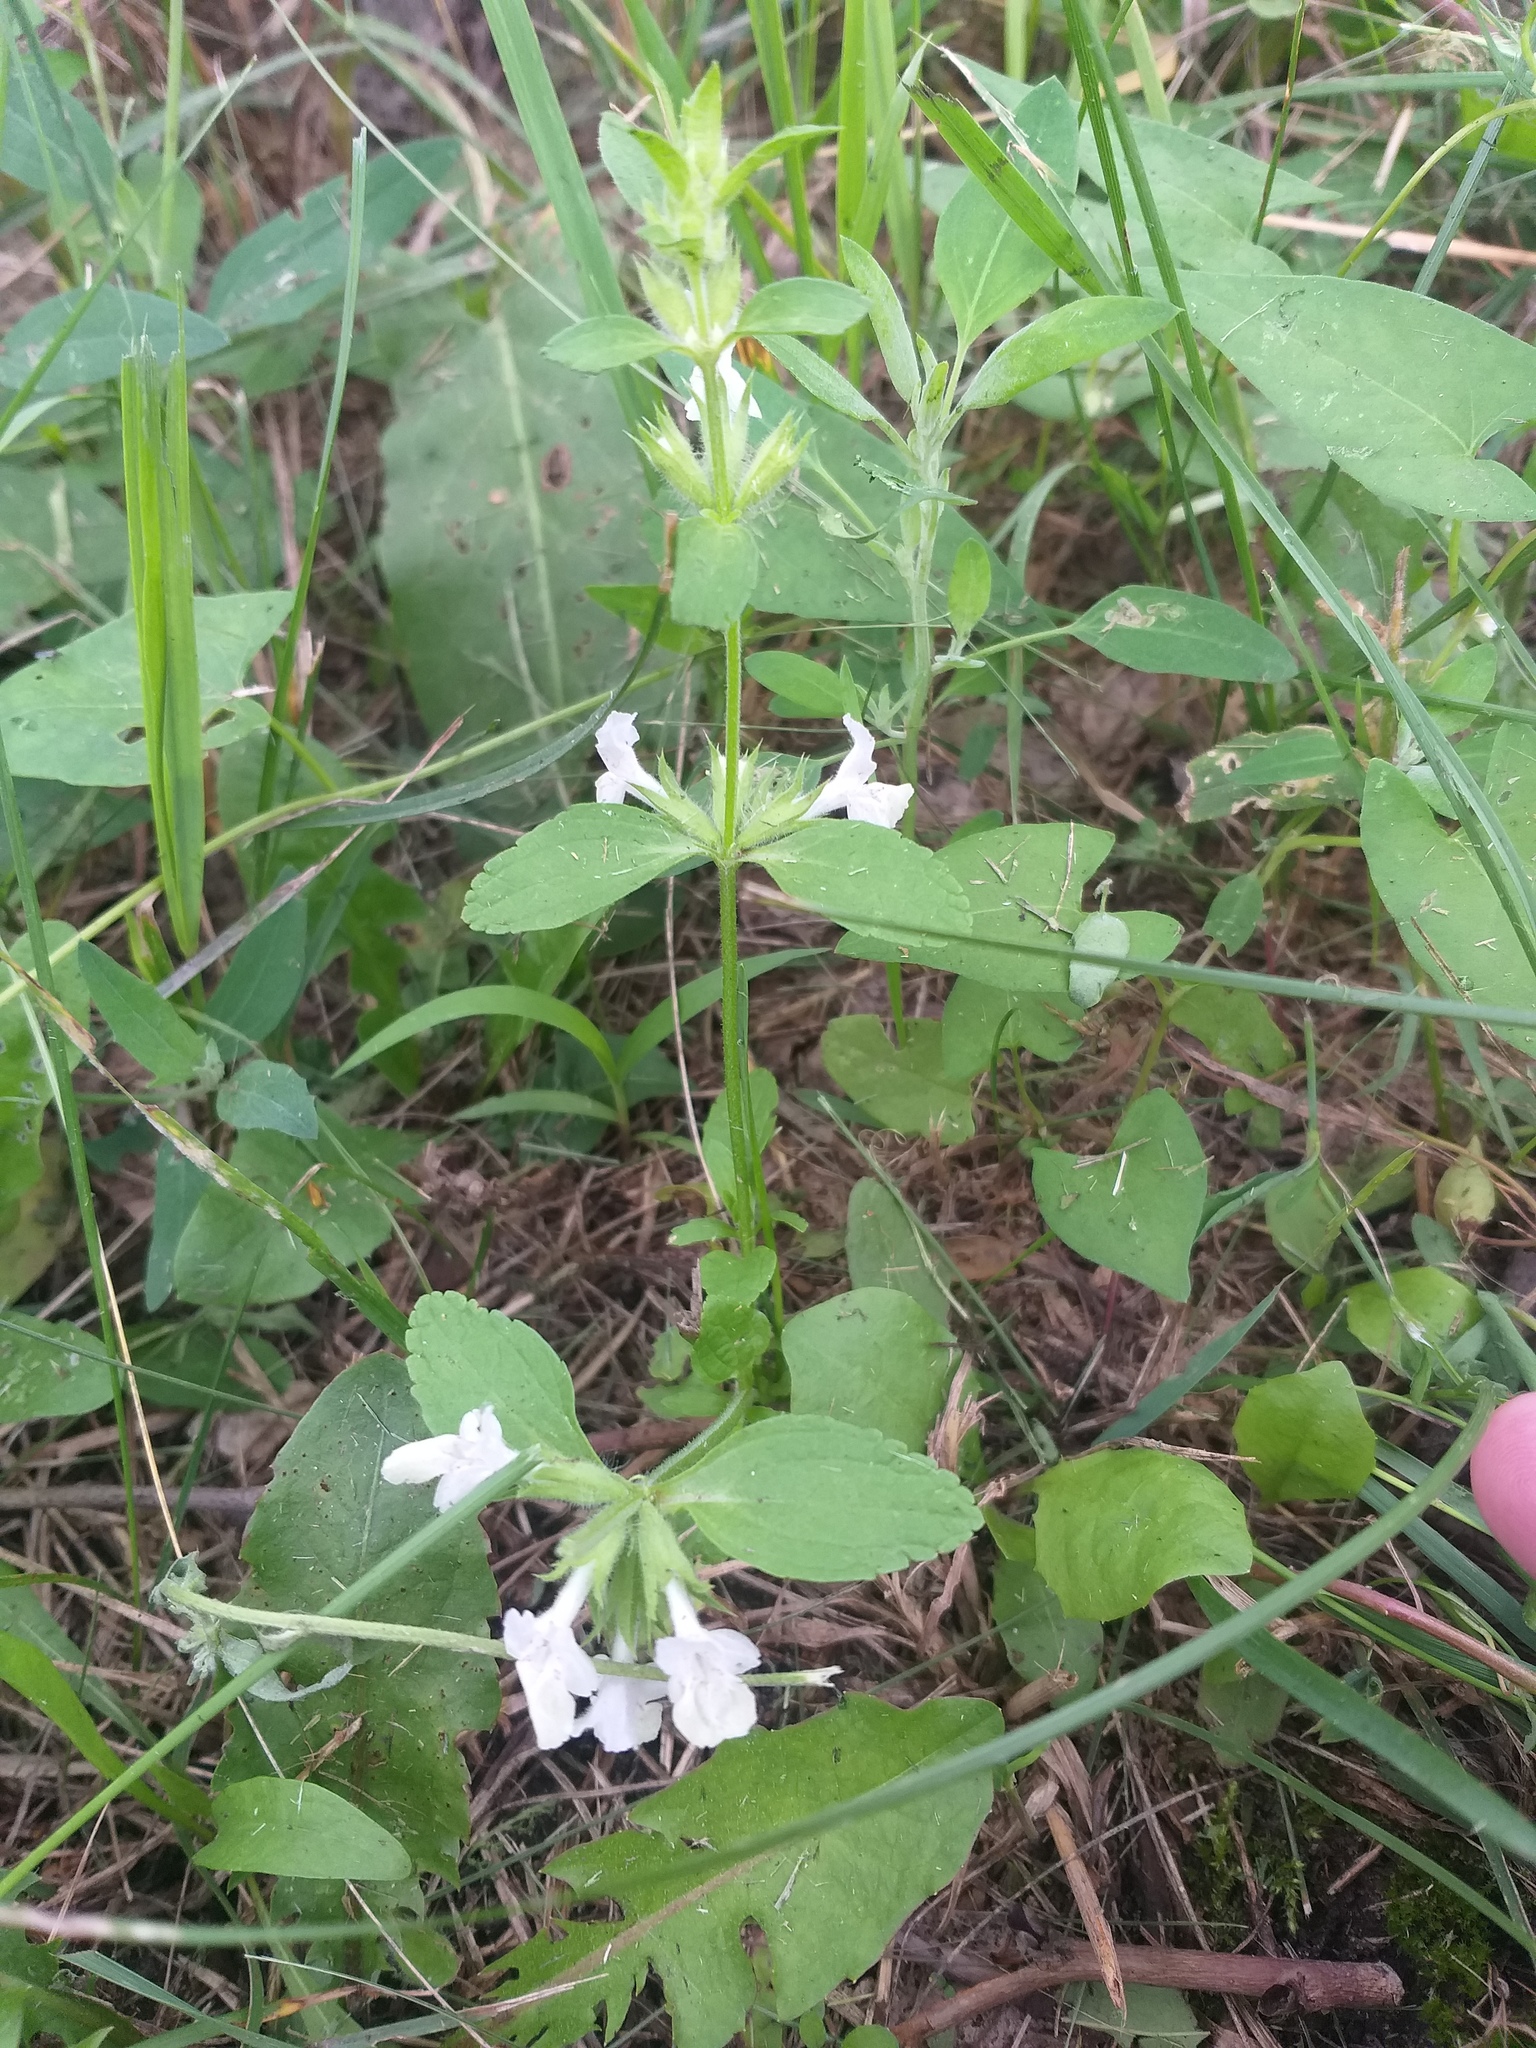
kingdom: Plantae
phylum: Tracheophyta
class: Magnoliopsida
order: Lamiales
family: Lamiaceae
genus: Stachys
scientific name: Stachys annua
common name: Annual yellow-woundwort
